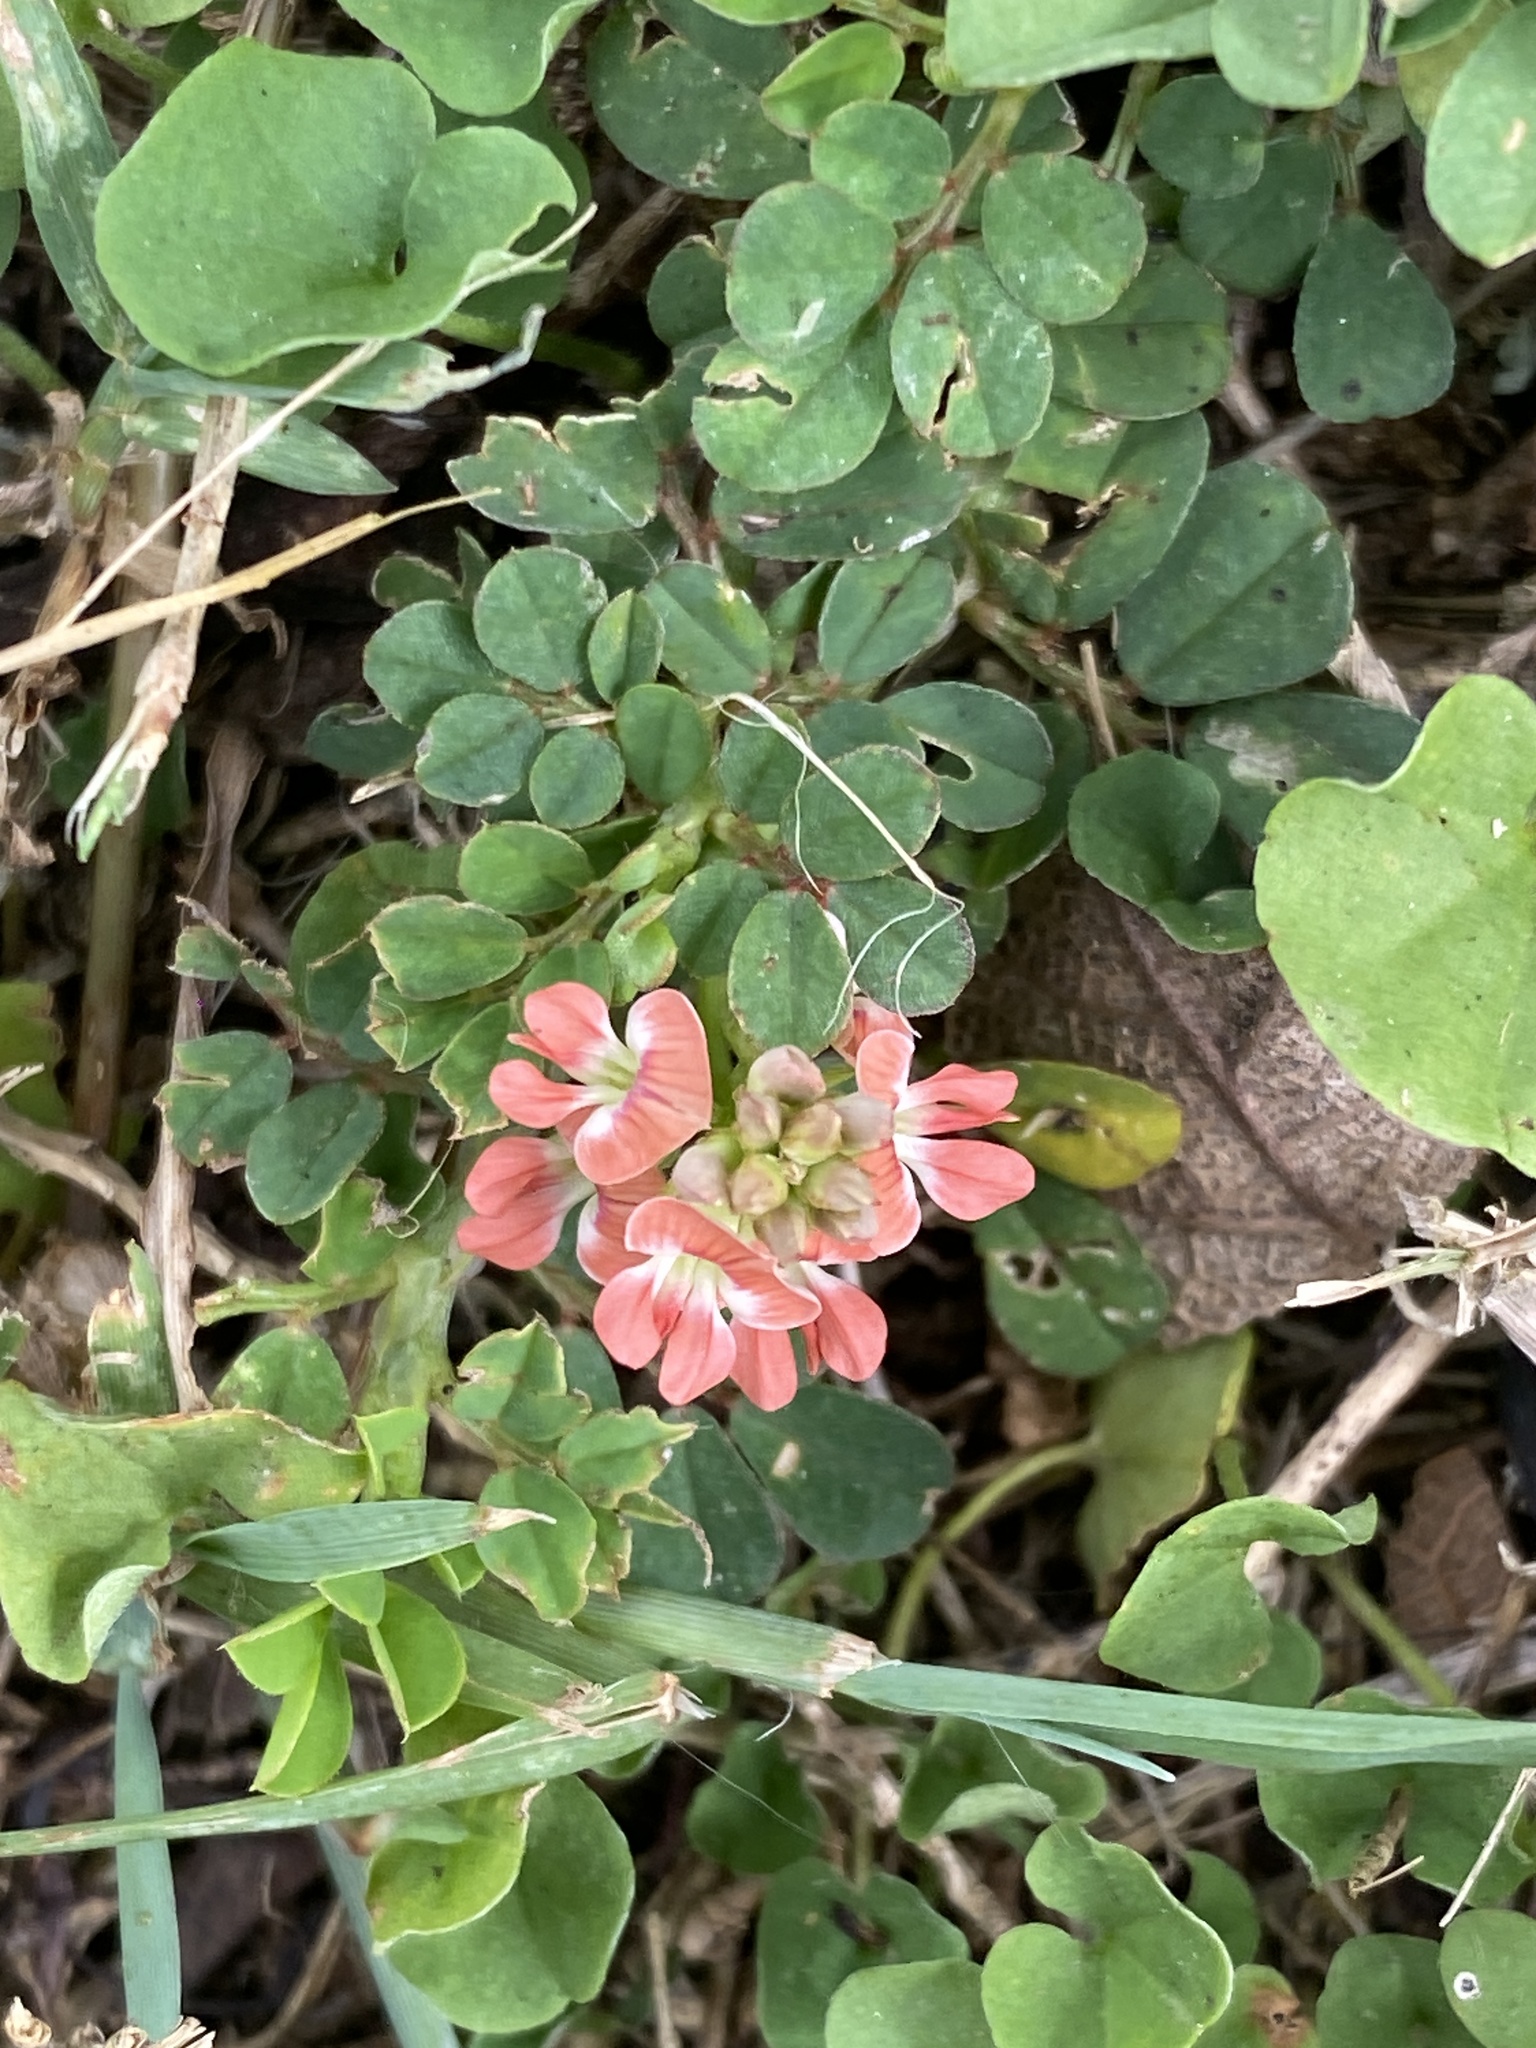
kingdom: Plantae
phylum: Tracheophyta
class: Magnoliopsida
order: Fabales
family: Fabaceae
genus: Indigofera
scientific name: Indigofera spicata
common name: Creeping indigo
